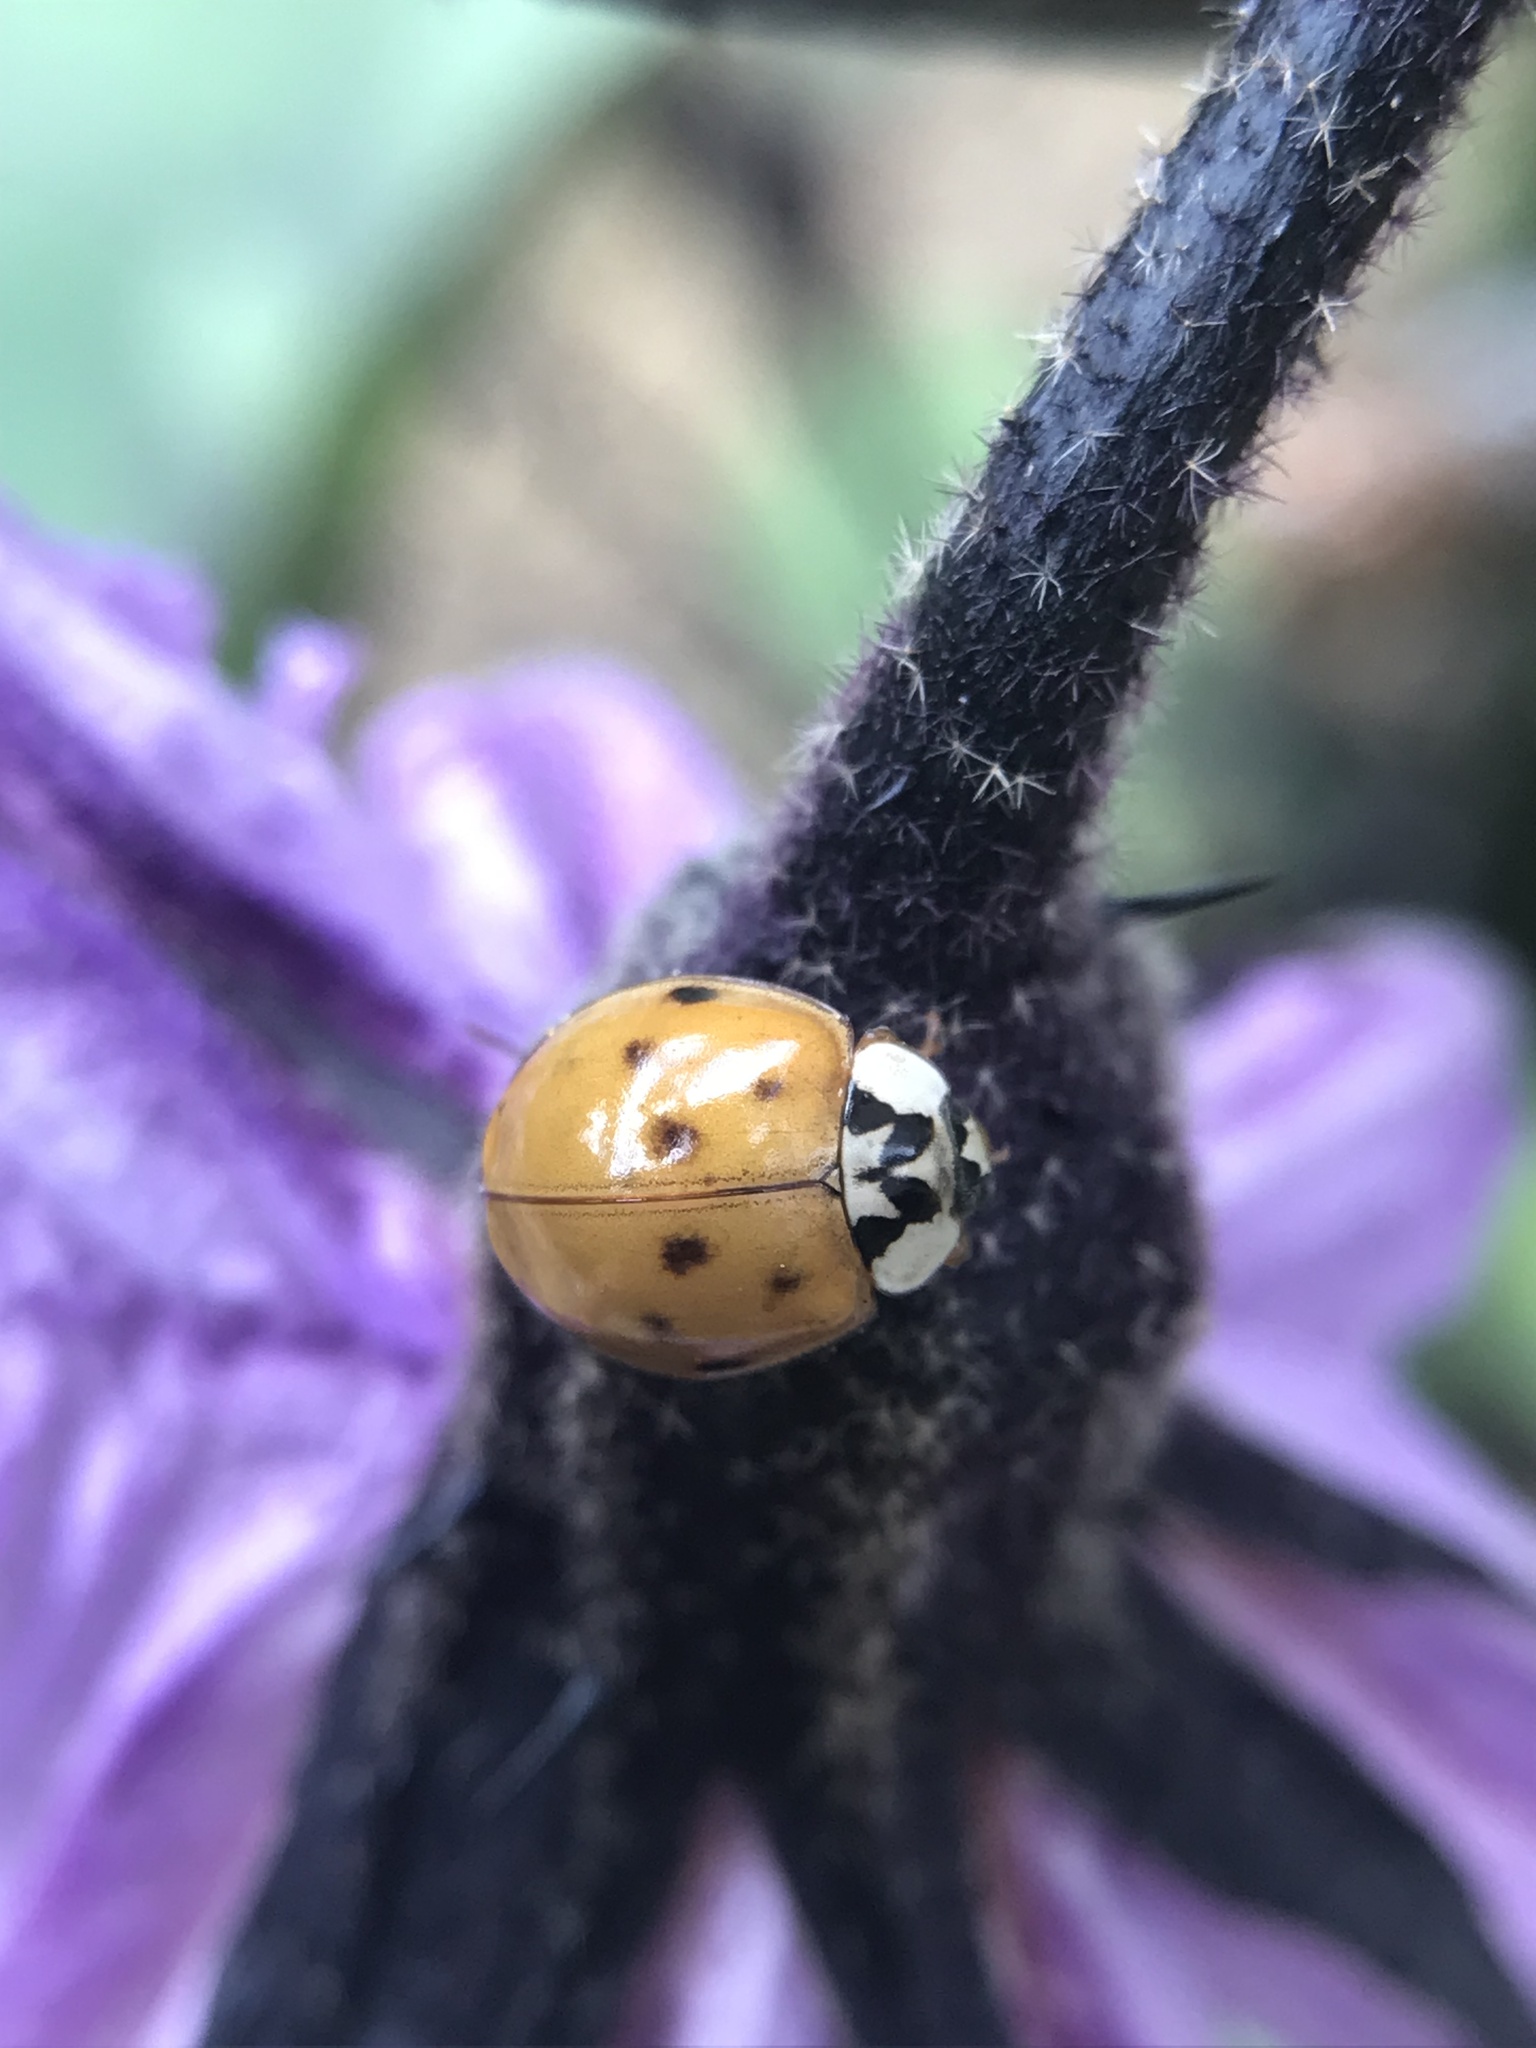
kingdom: Animalia
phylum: Arthropoda
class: Insecta
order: Coleoptera
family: Coccinellidae
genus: Harmonia
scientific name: Harmonia axyridis
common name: Harlequin ladybird
